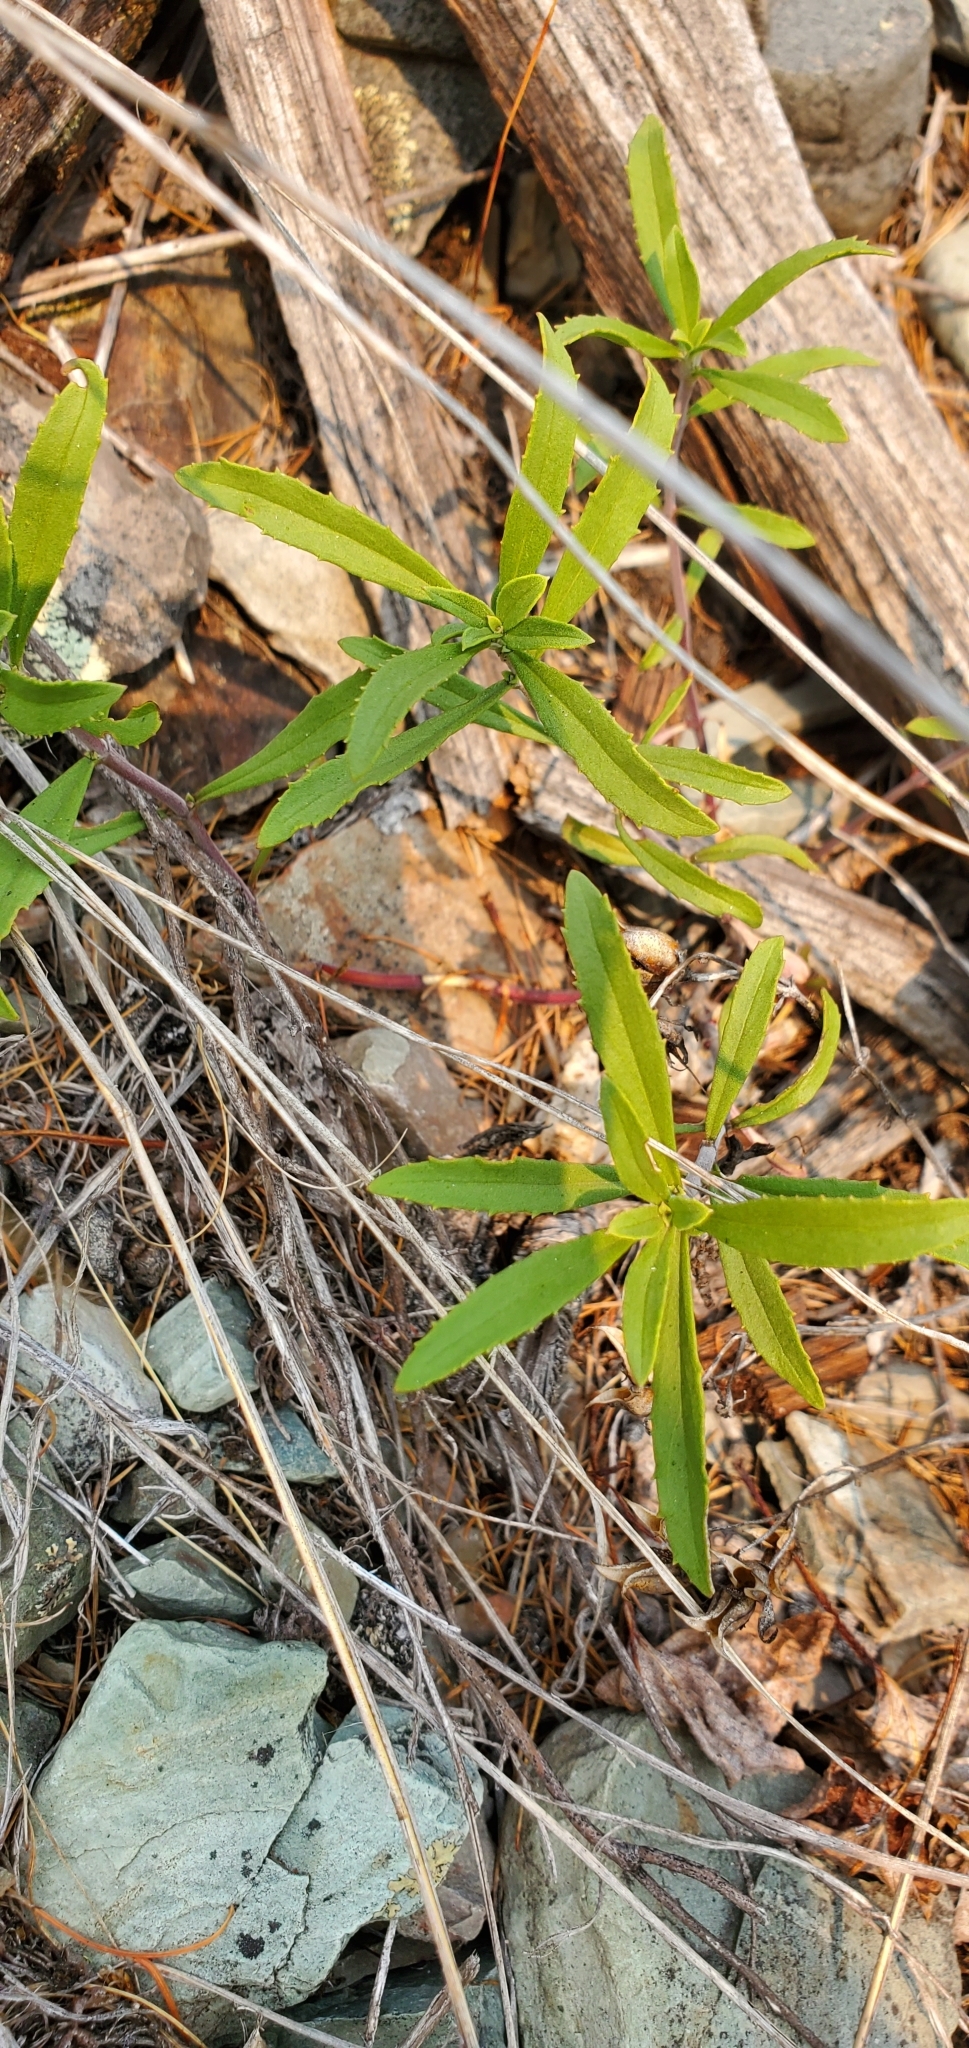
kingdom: Plantae
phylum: Tracheophyta
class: Magnoliopsida
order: Lamiales
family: Plantaginaceae
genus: Penstemon
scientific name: Penstemon fruticosus
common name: Bush penstemon
